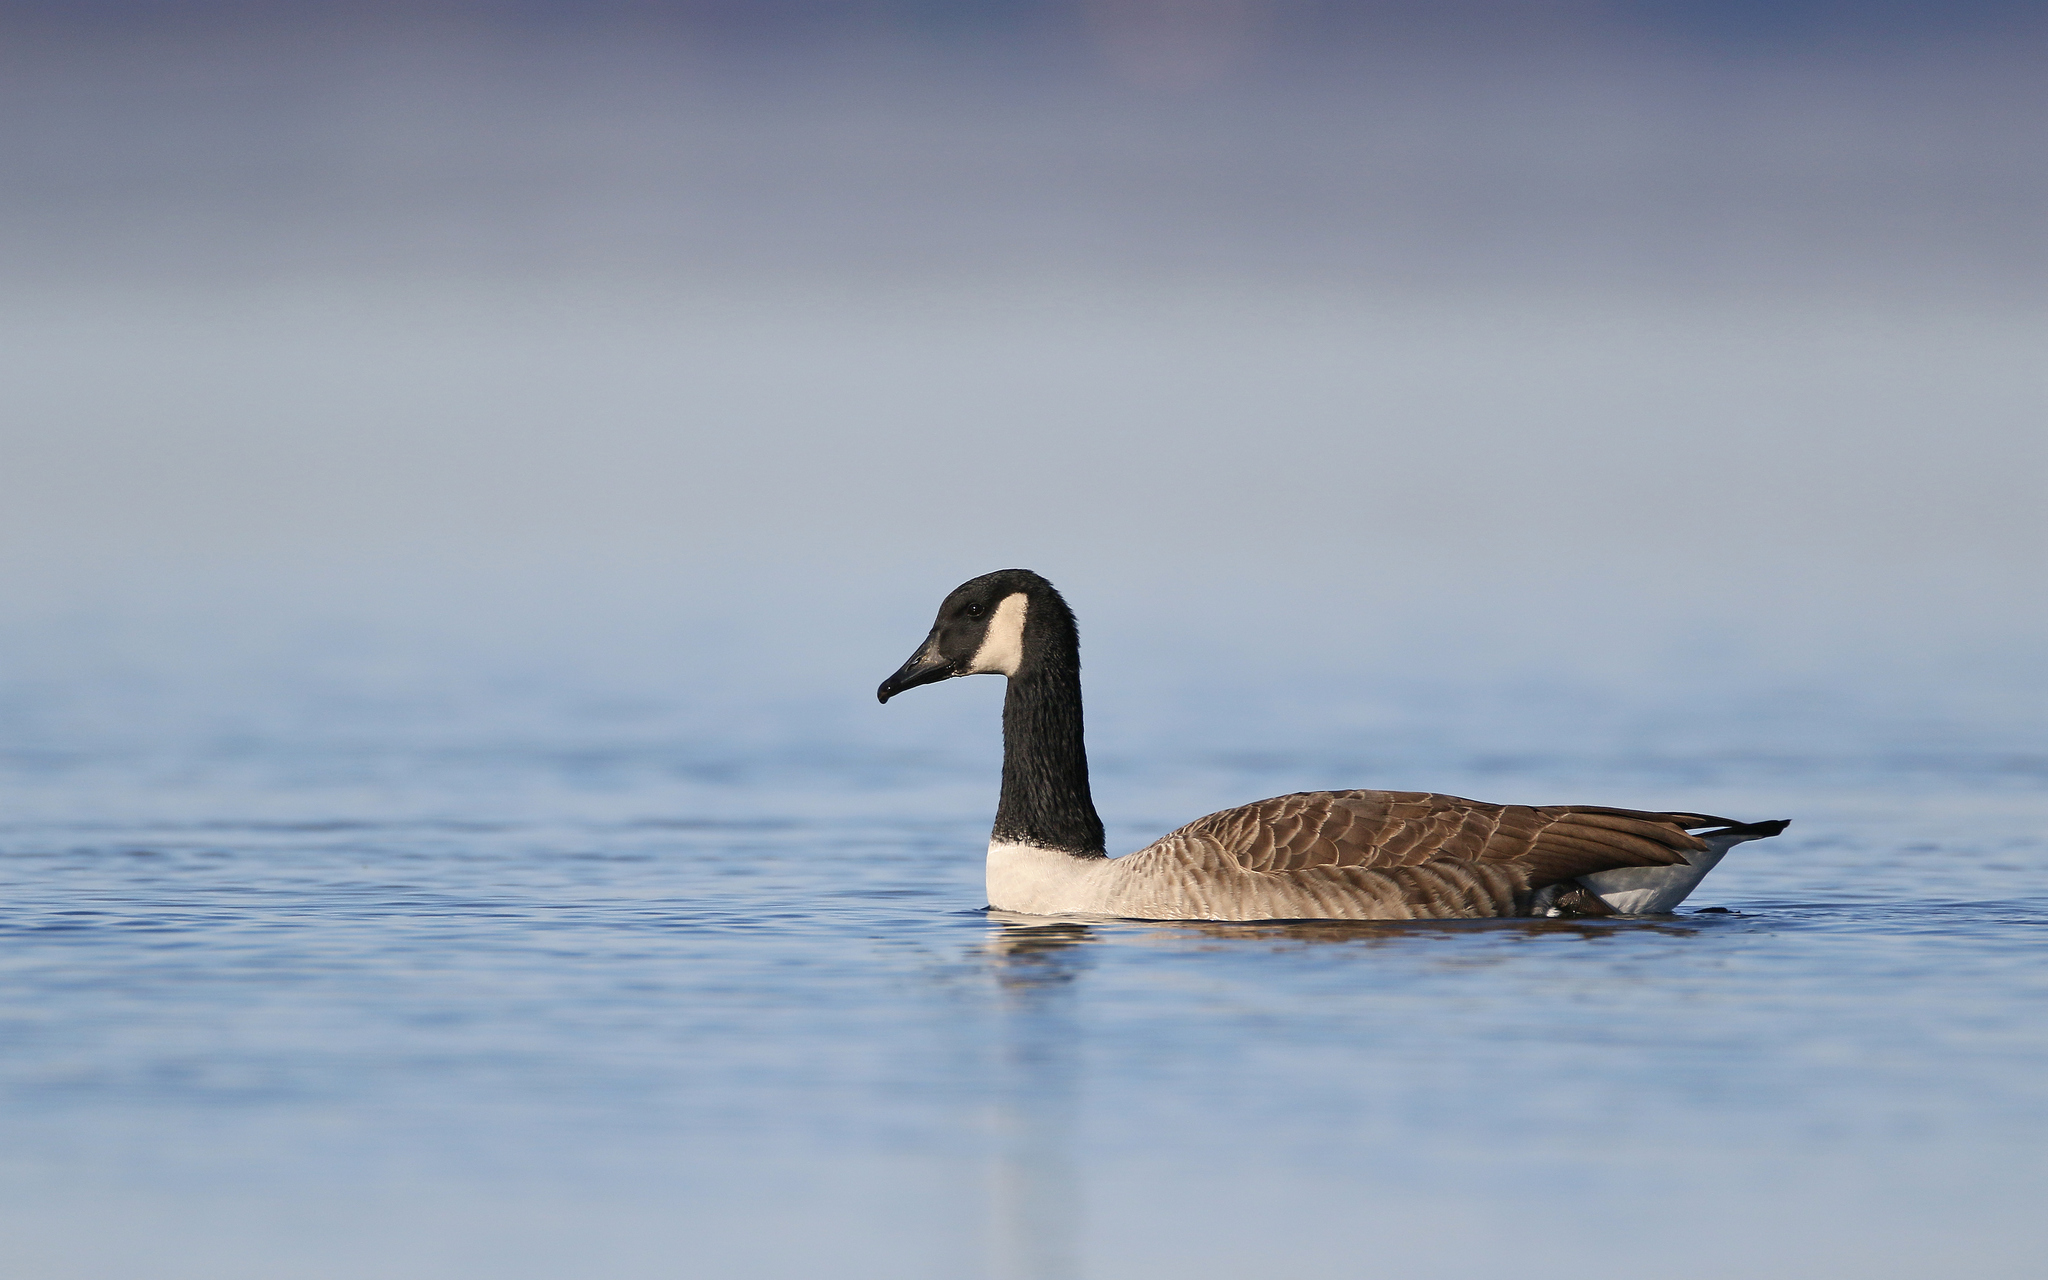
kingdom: Animalia
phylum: Chordata
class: Aves
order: Anseriformes
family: Anatidae
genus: Branta
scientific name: Branta canadensis
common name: Canada goose
